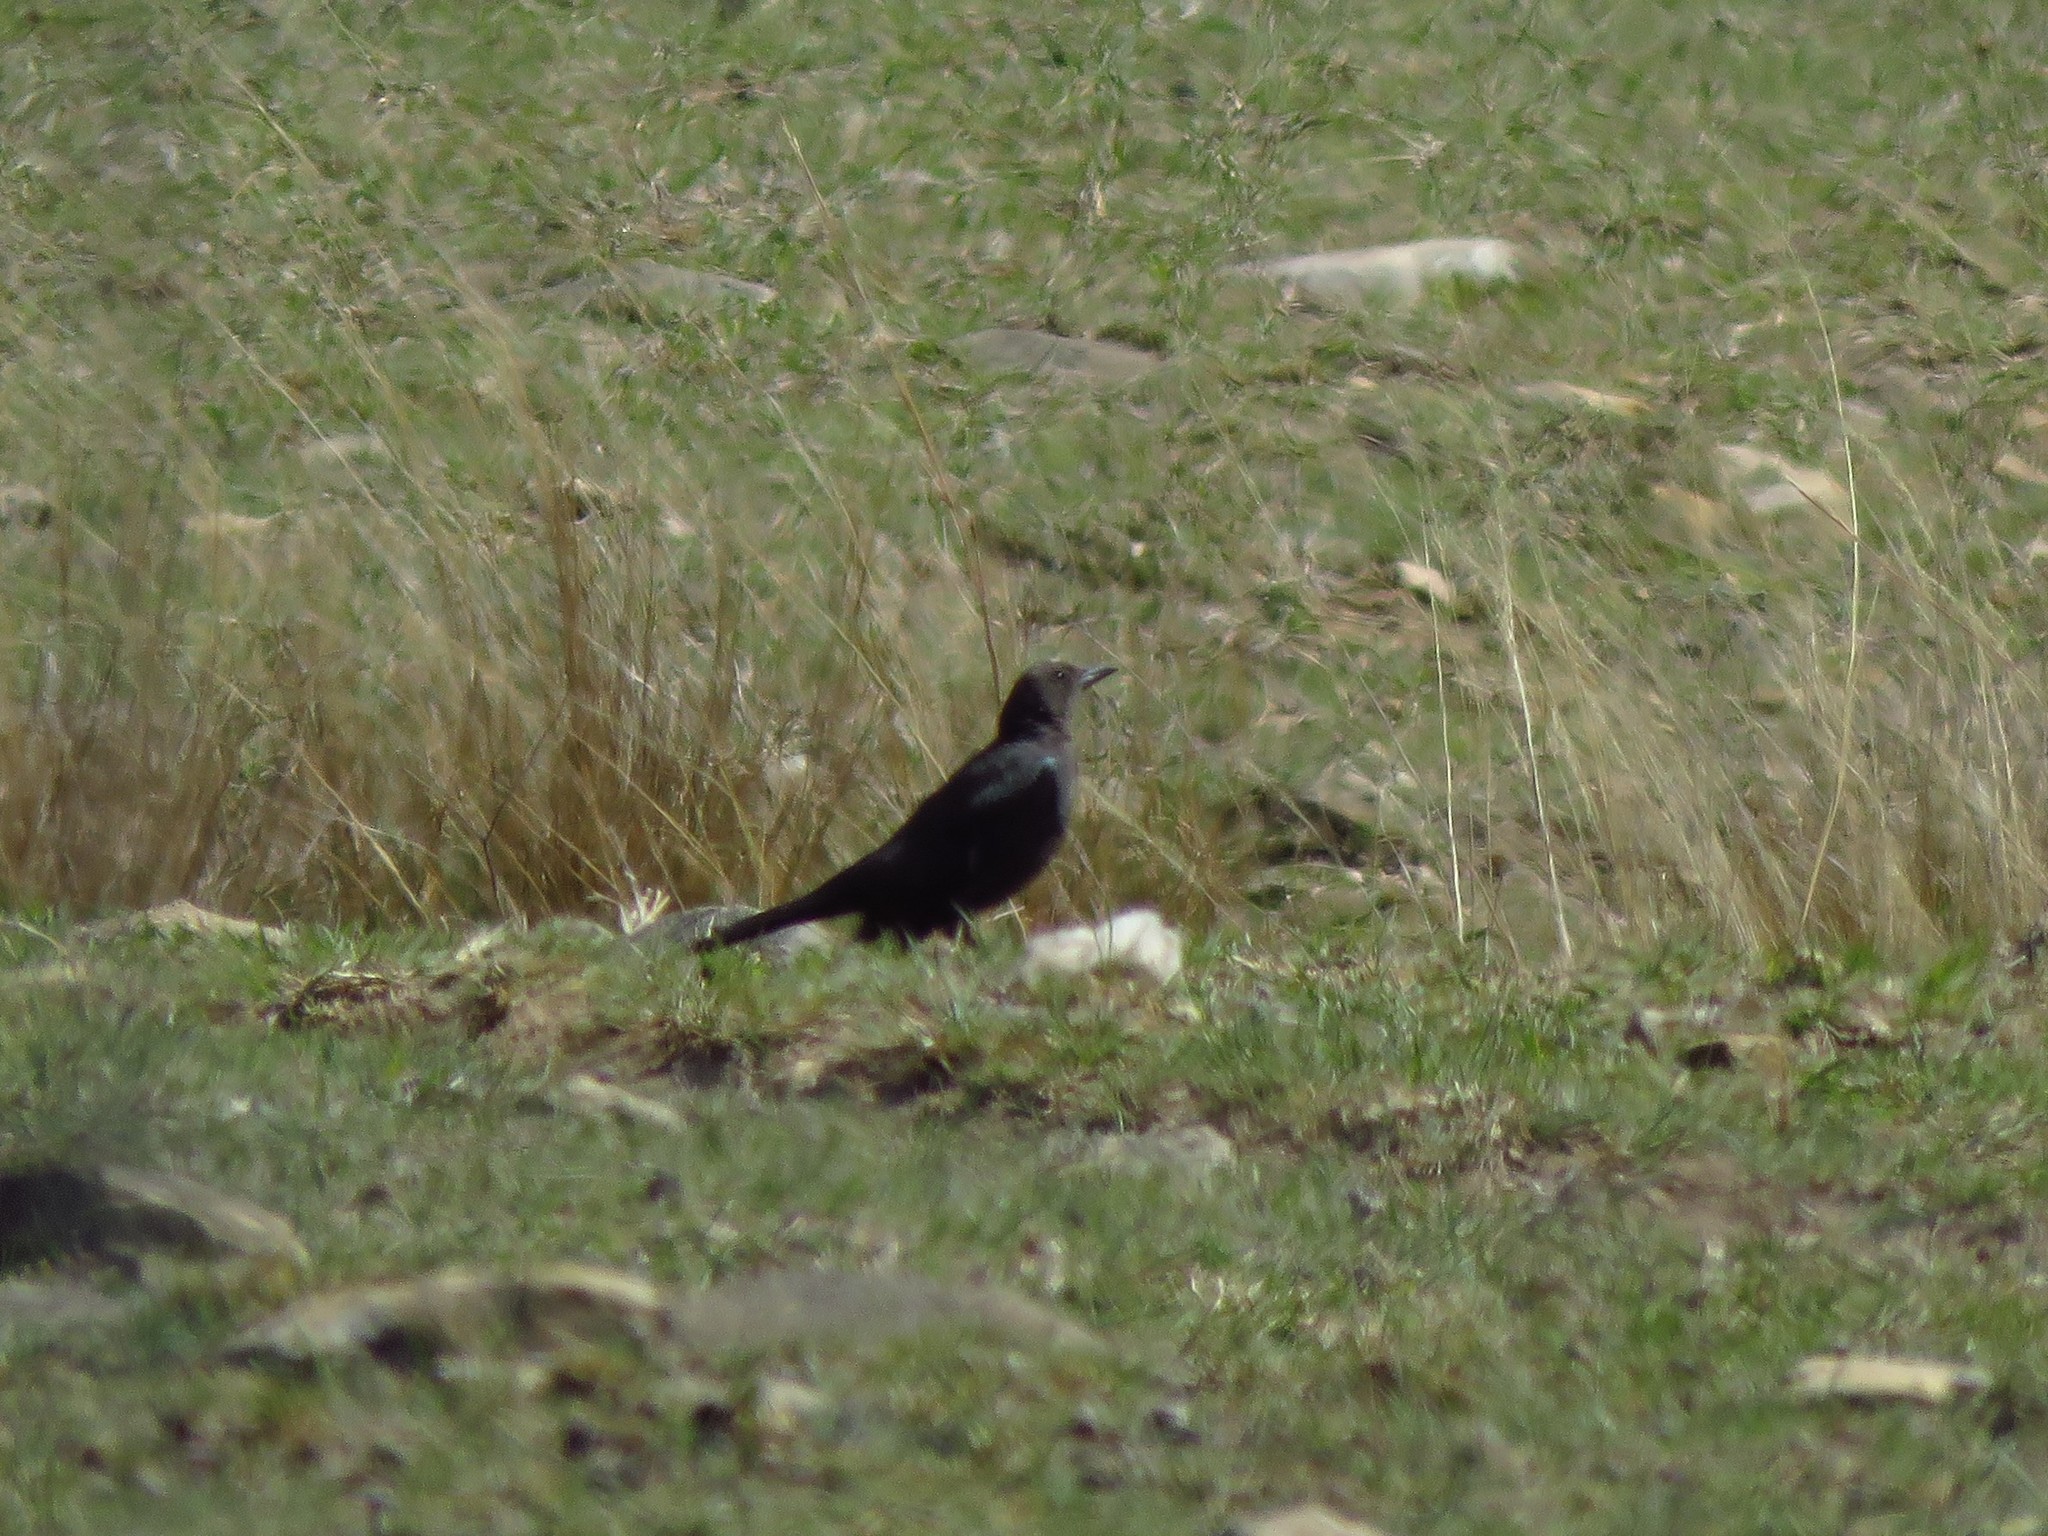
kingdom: Animalia
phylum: Chordata
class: Aves
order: Passeriformes
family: Icteridae
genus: Euphagus
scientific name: Euphagus cyanocephalus
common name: Brewer's blackbird
